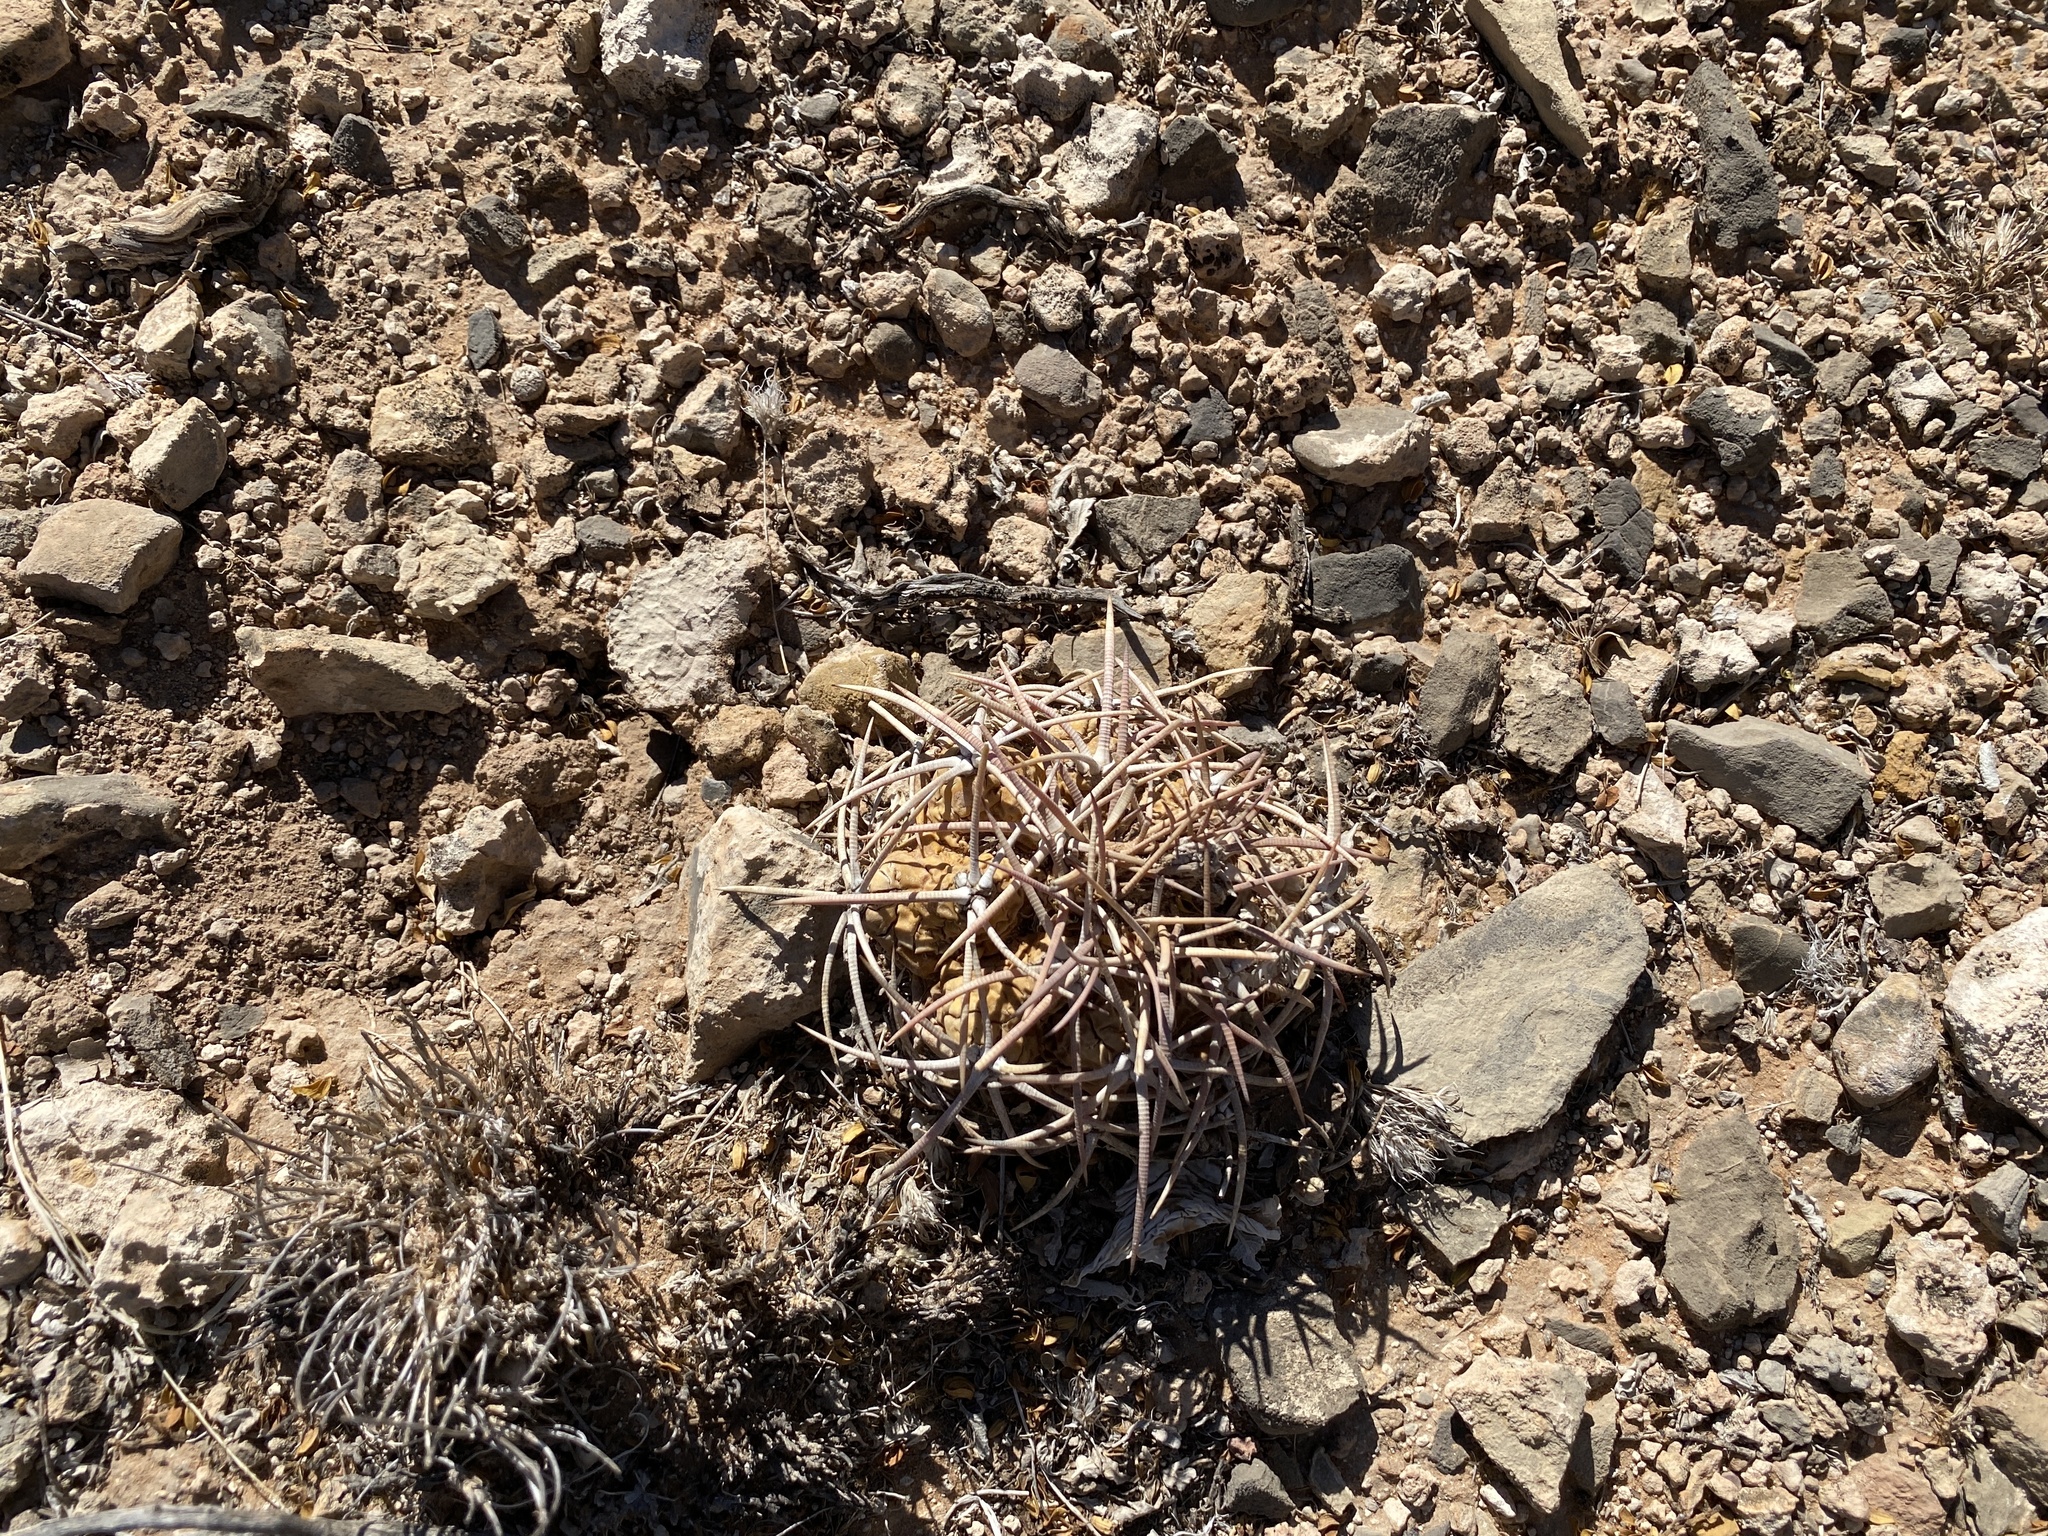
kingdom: Plantae
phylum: Tracheophyta
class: Magnoliopsida
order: Caryophyllales
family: Cactaceae
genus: Echinocactus
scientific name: Echinocactus horizonthalonius
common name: Devilshead
